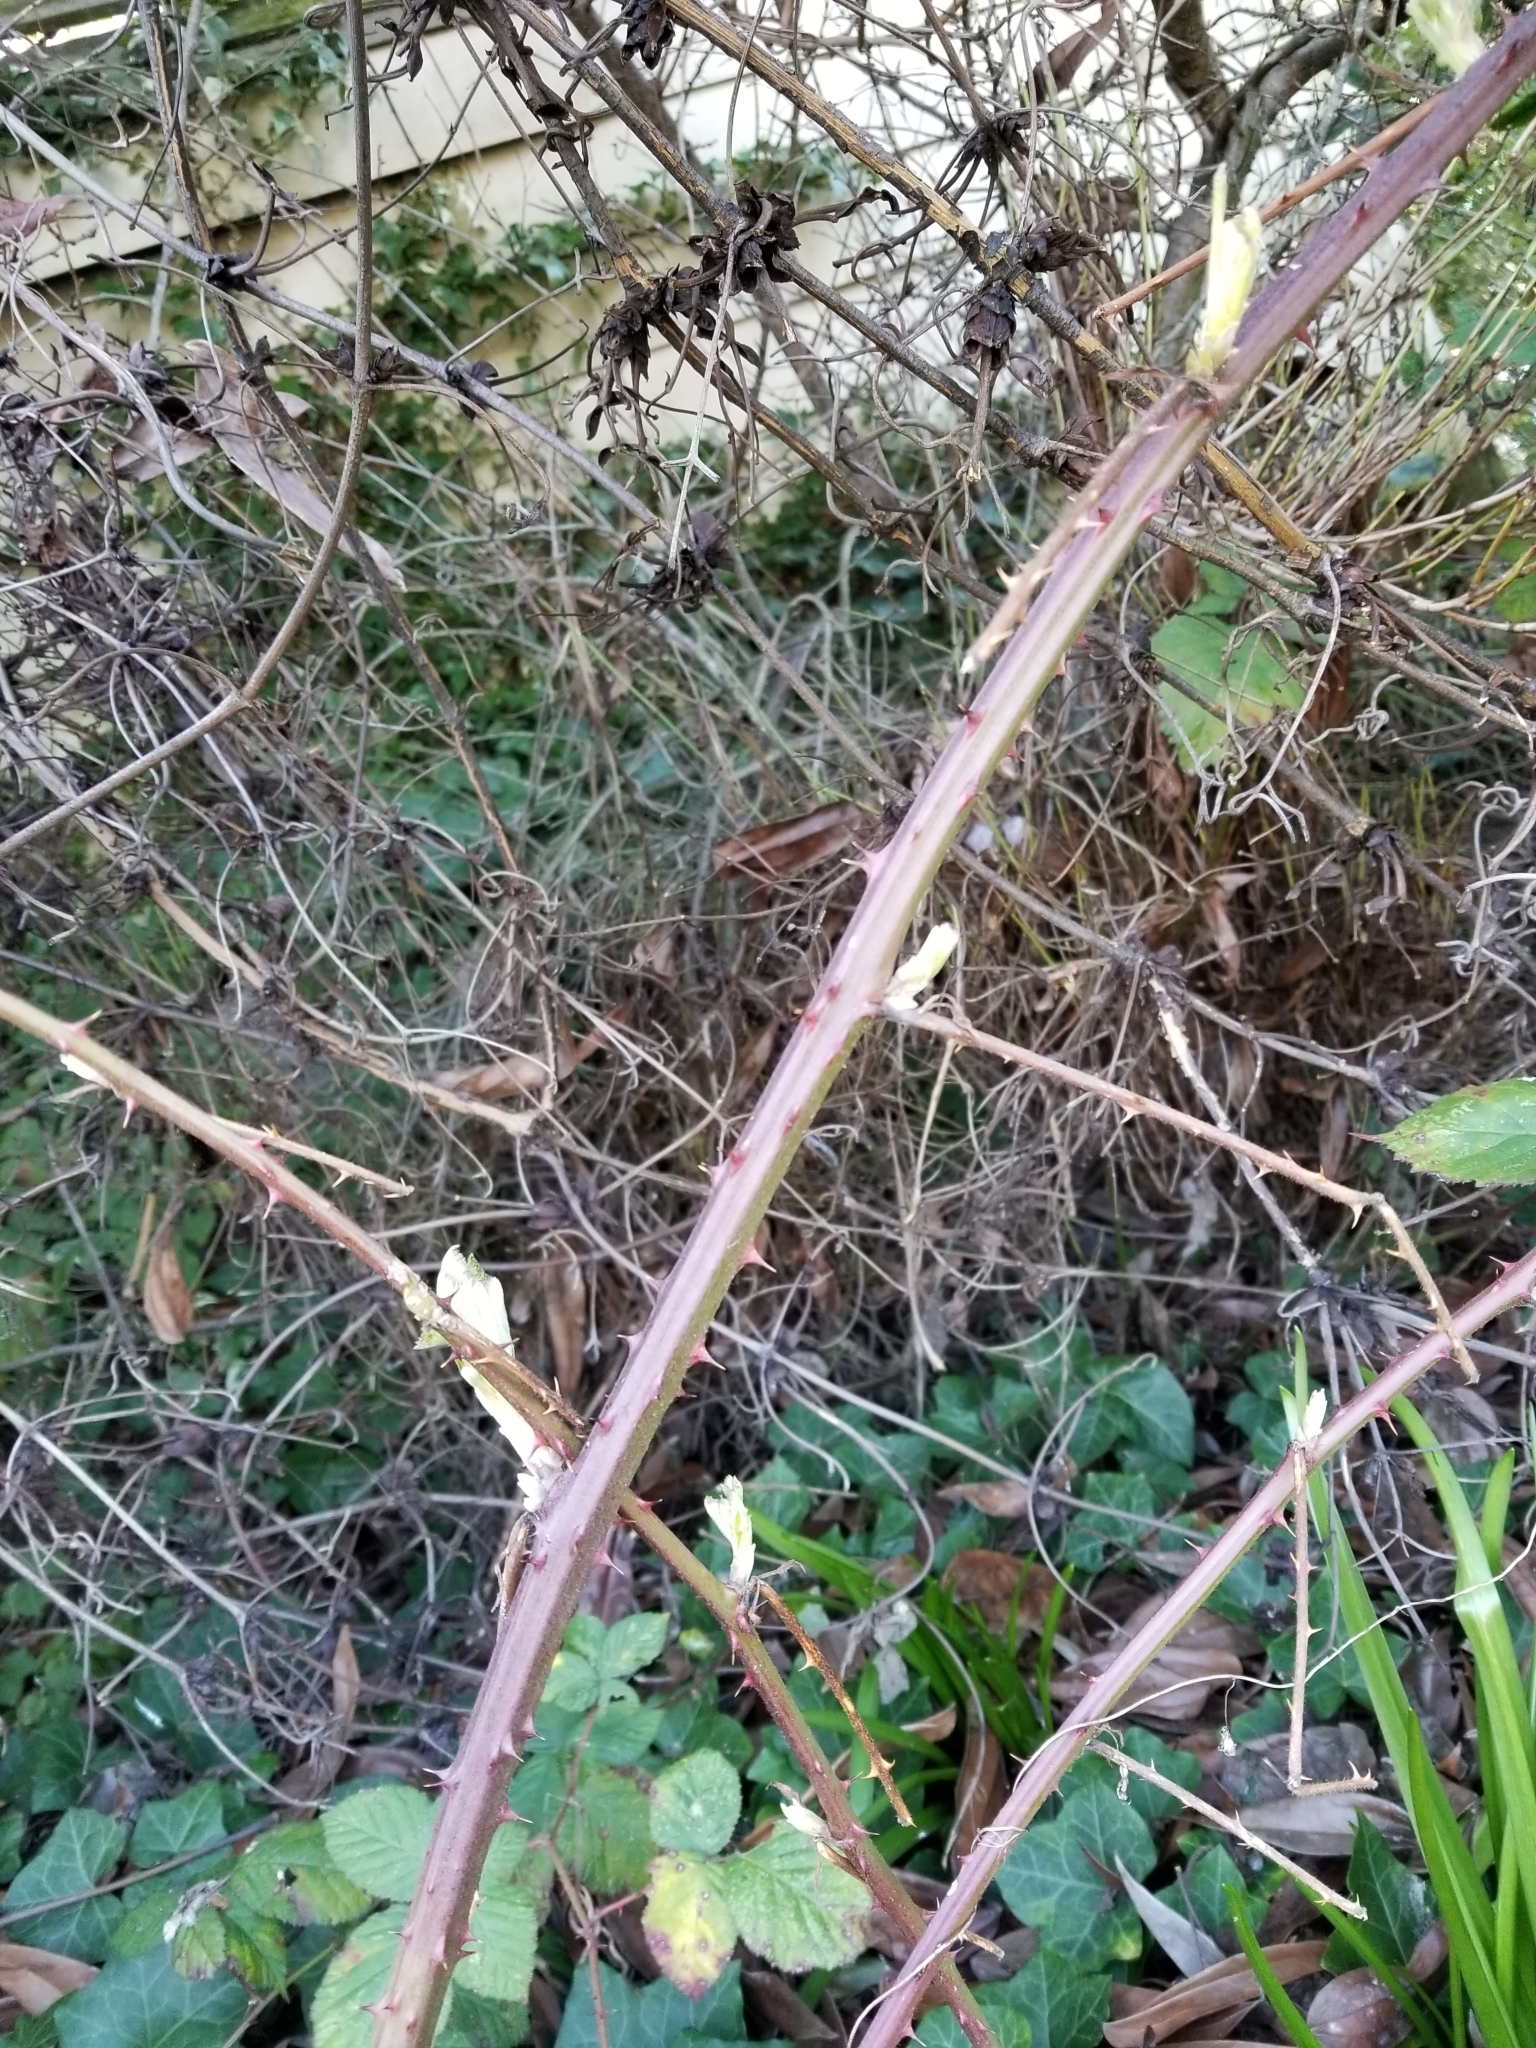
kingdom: Plantae
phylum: Tracheophyta
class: Magnoliopsida
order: Rosales
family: Rosaceae
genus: Rubus
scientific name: Rubus bifrons
